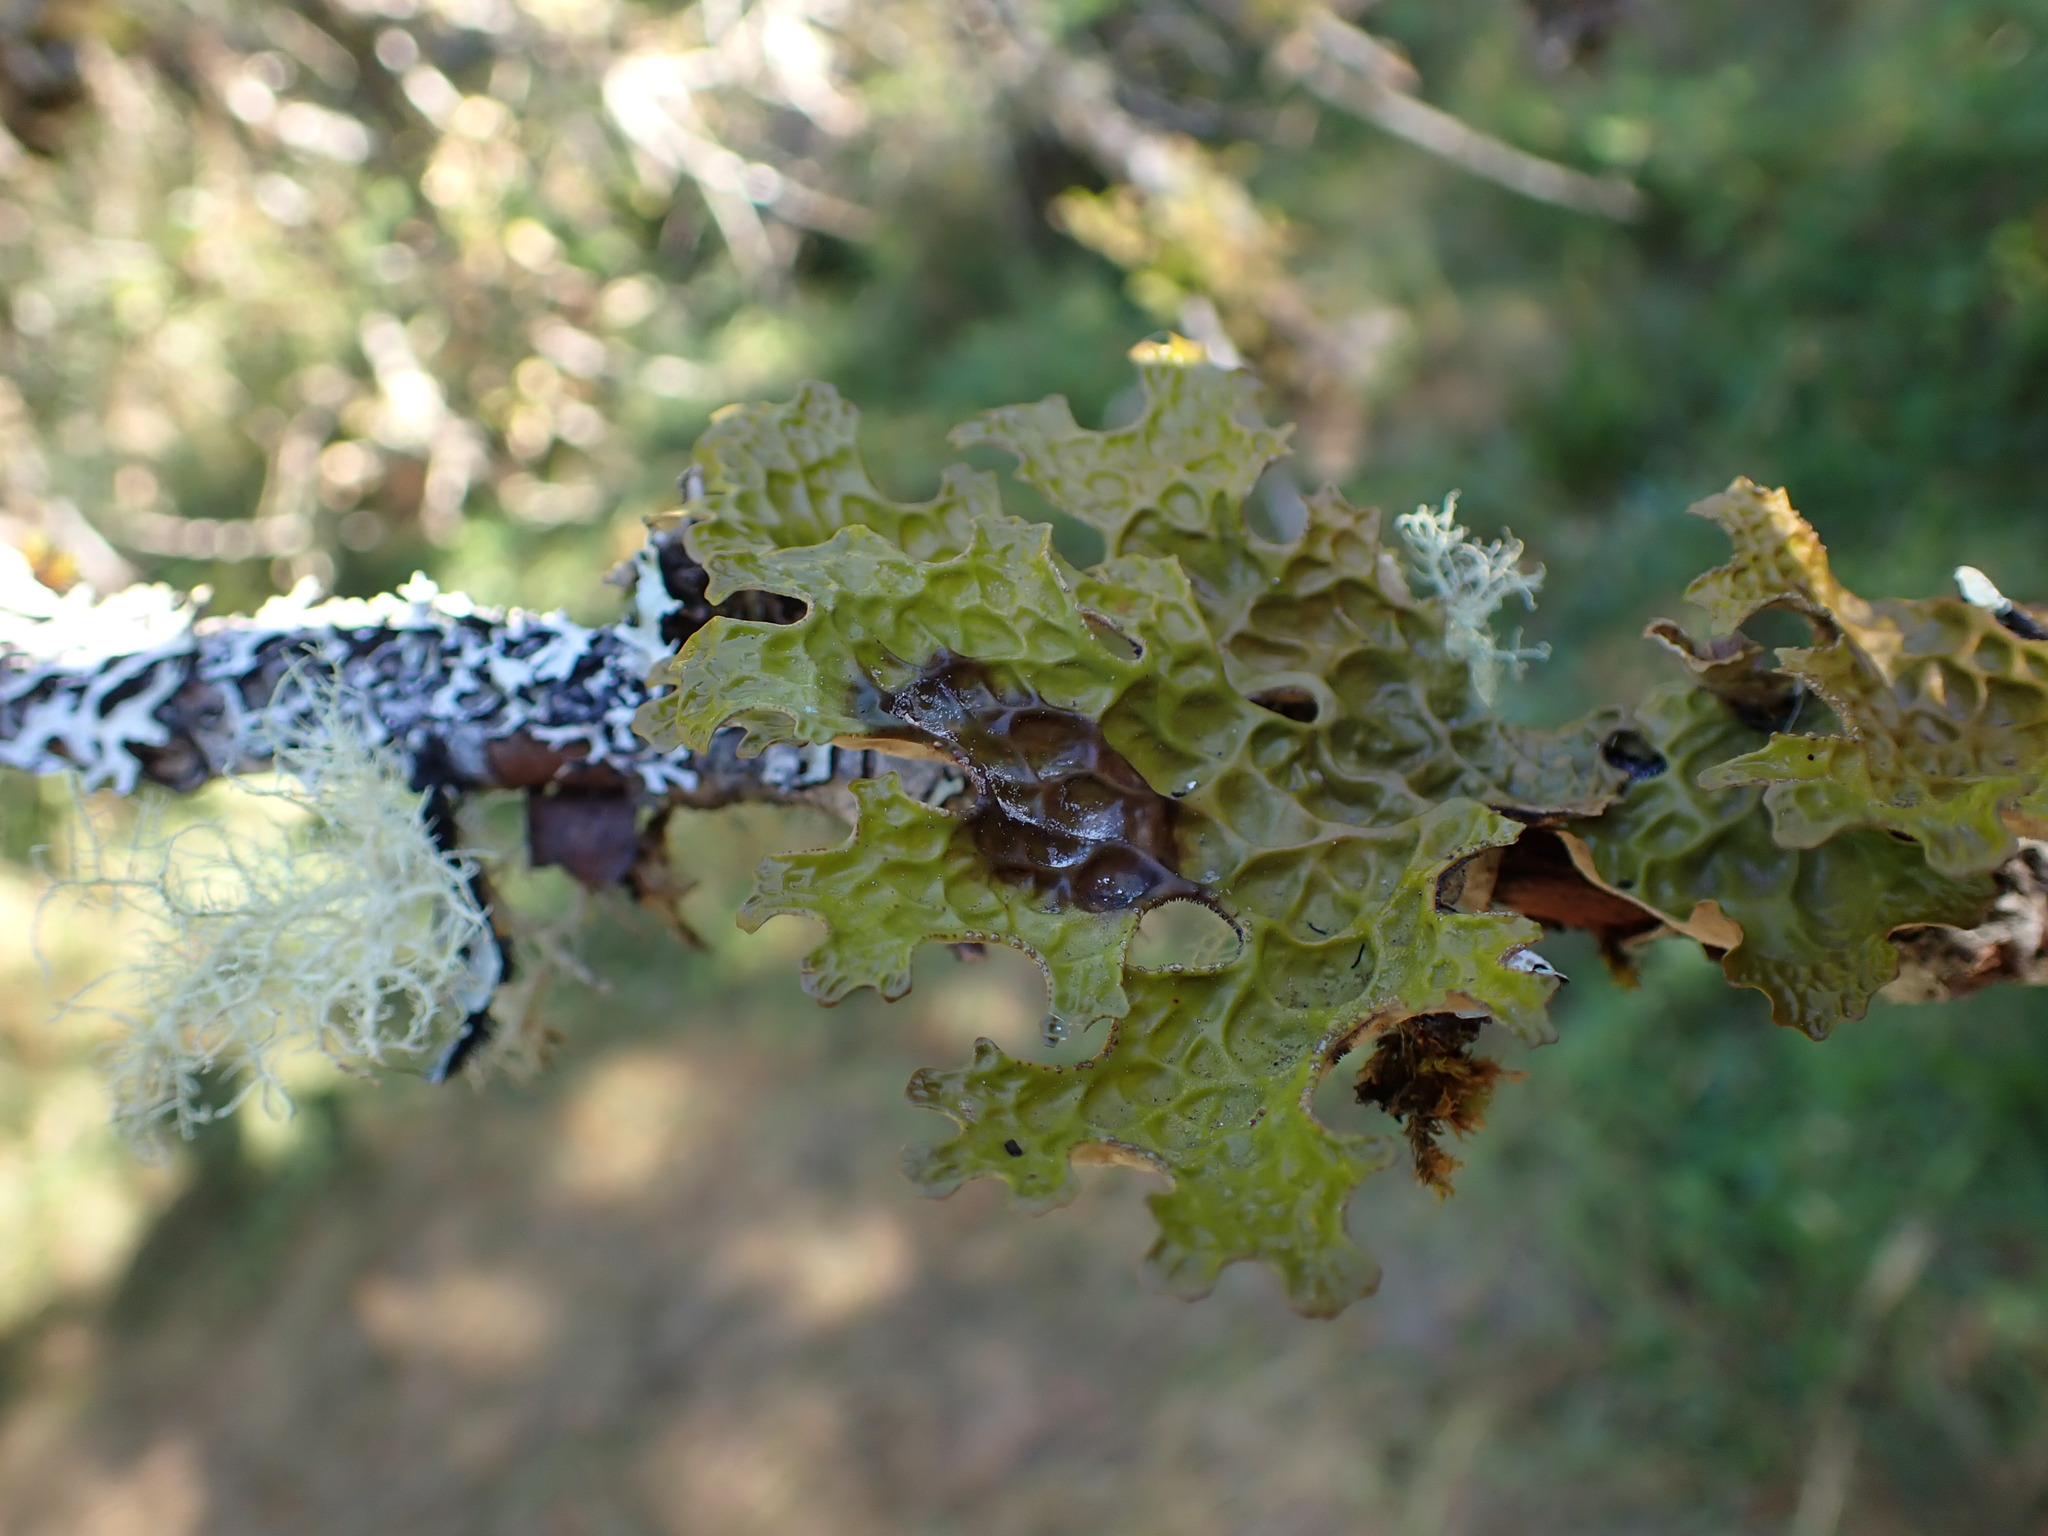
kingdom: Fungi
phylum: Ascomycota
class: Lecanoromycetes
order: Peltigerales
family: Lobariaceae
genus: Lobaria
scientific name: Lobaria pulmonaria
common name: Lungwort
